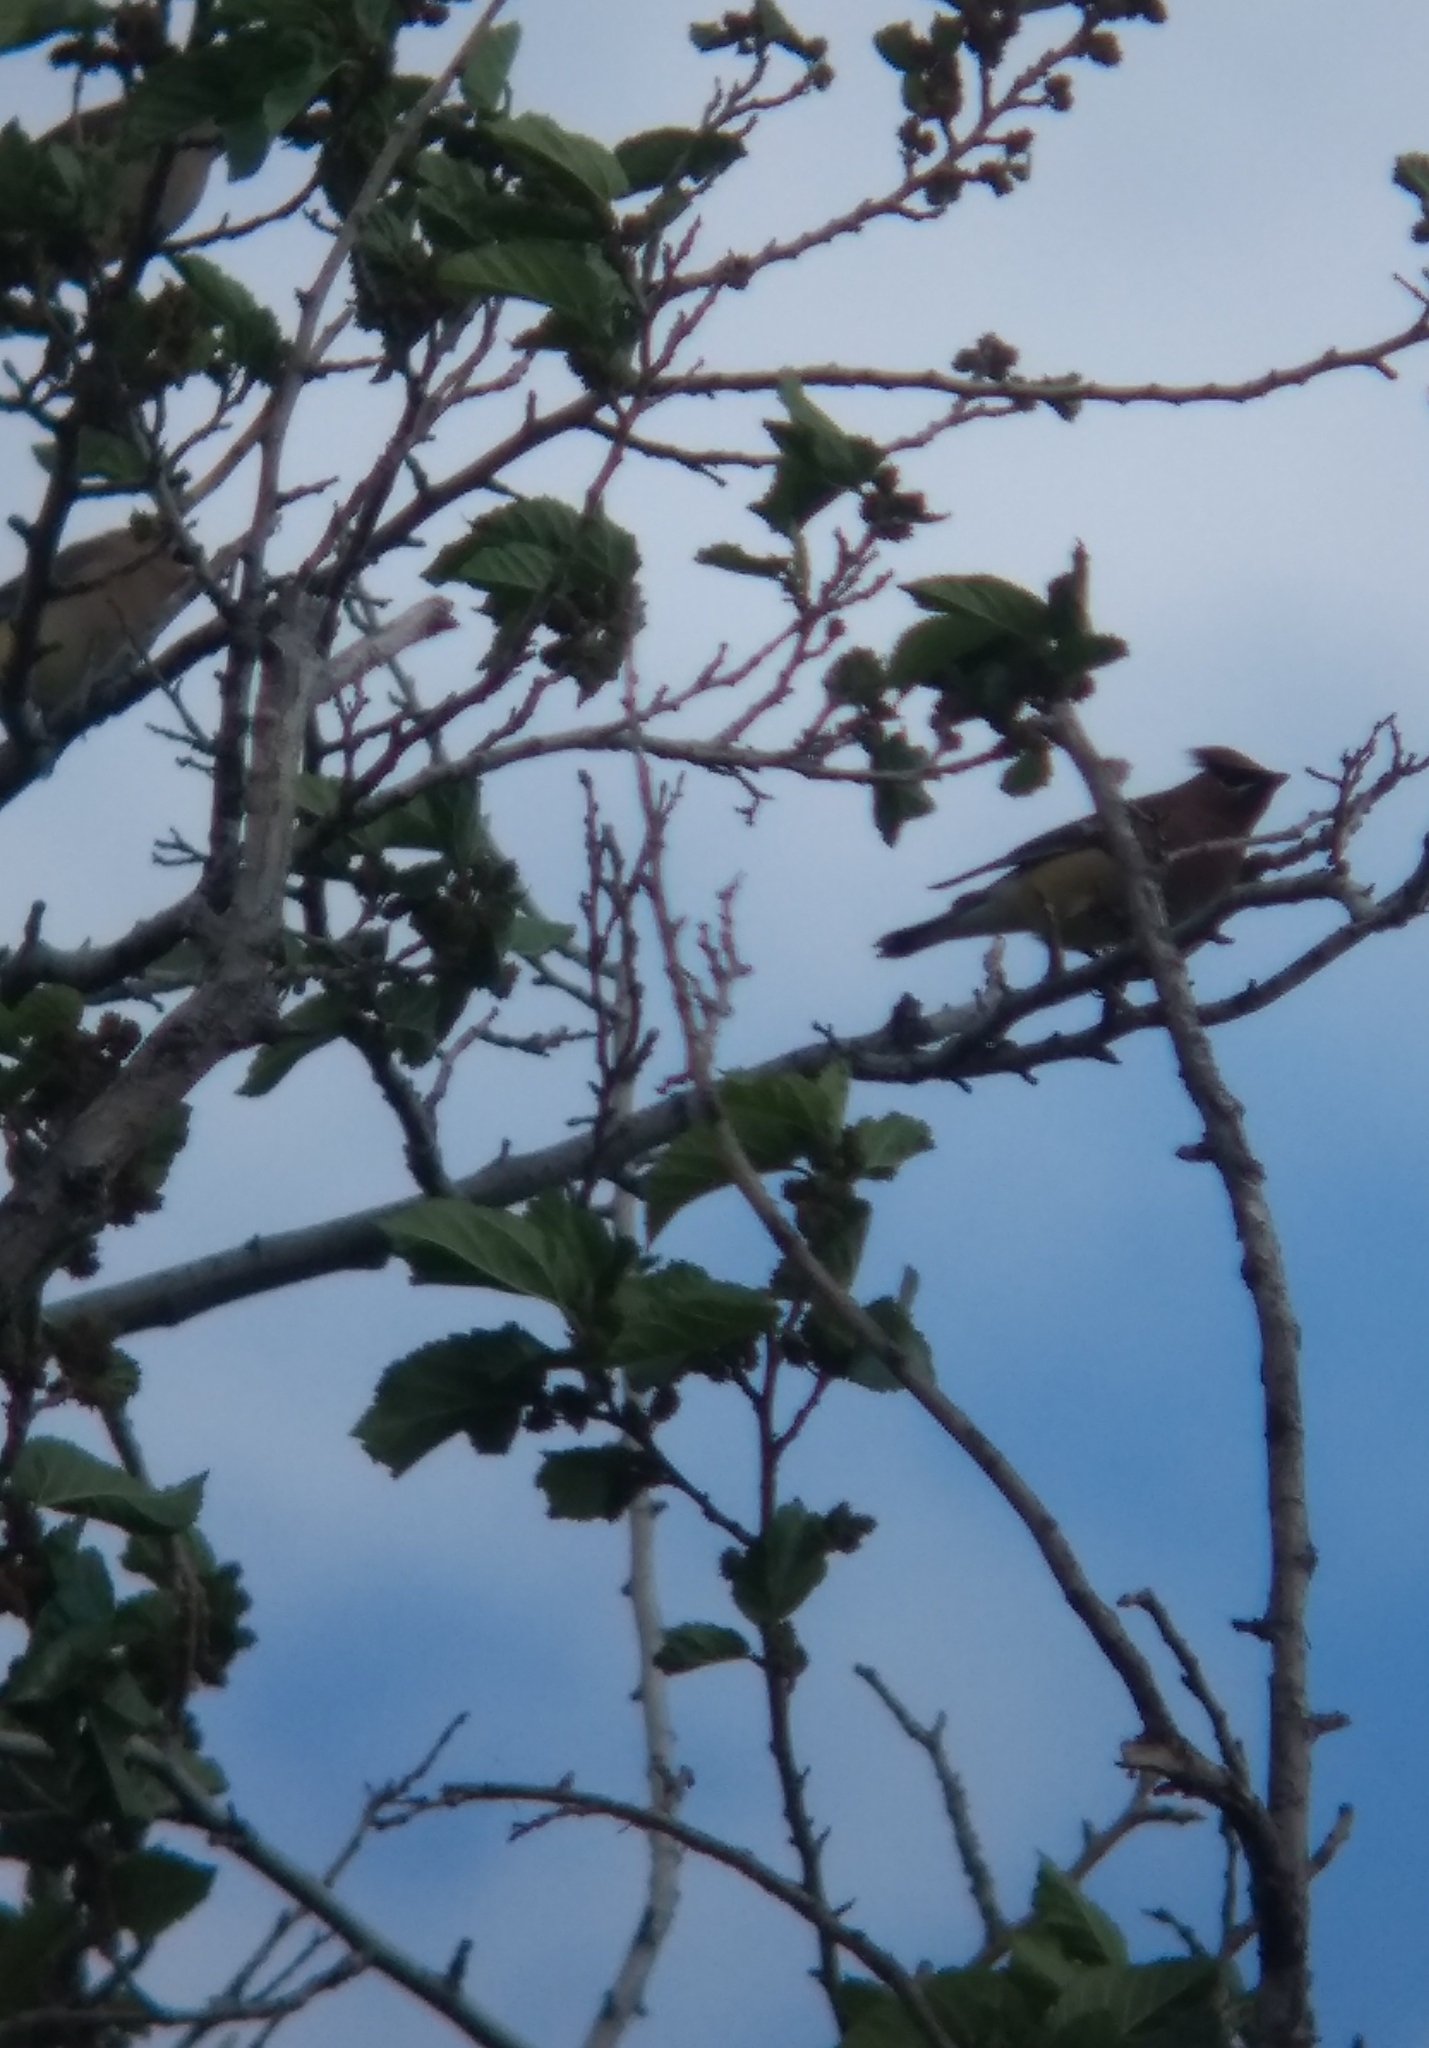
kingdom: Animalia
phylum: Chordata
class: Aves
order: Passeriformes
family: Bombycillidae
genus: Bombycilla
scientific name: Bombycilla cedrorum
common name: Cedar waxwing
